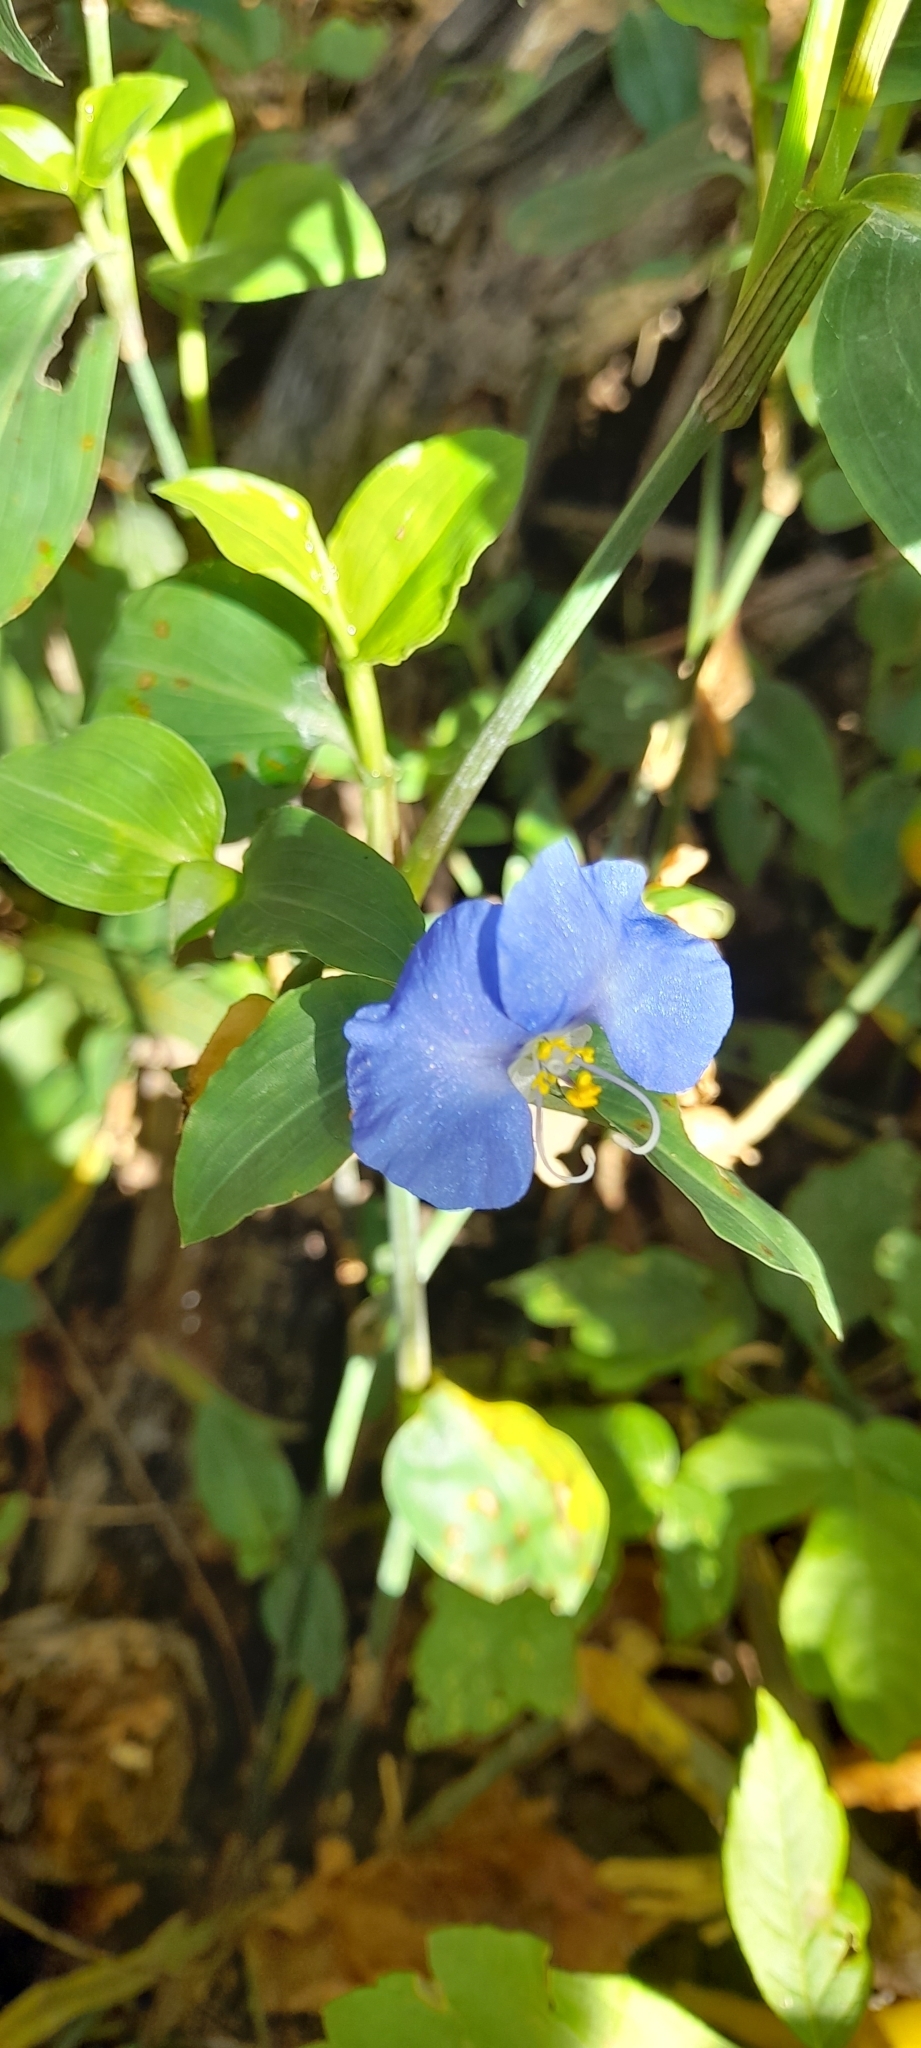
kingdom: Plantae
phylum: Tracheophyta
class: Liliopsida
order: Commelinales
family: Commelinaceae
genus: Commelina
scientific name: Commelina erecta
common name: Blousel blommetjie
